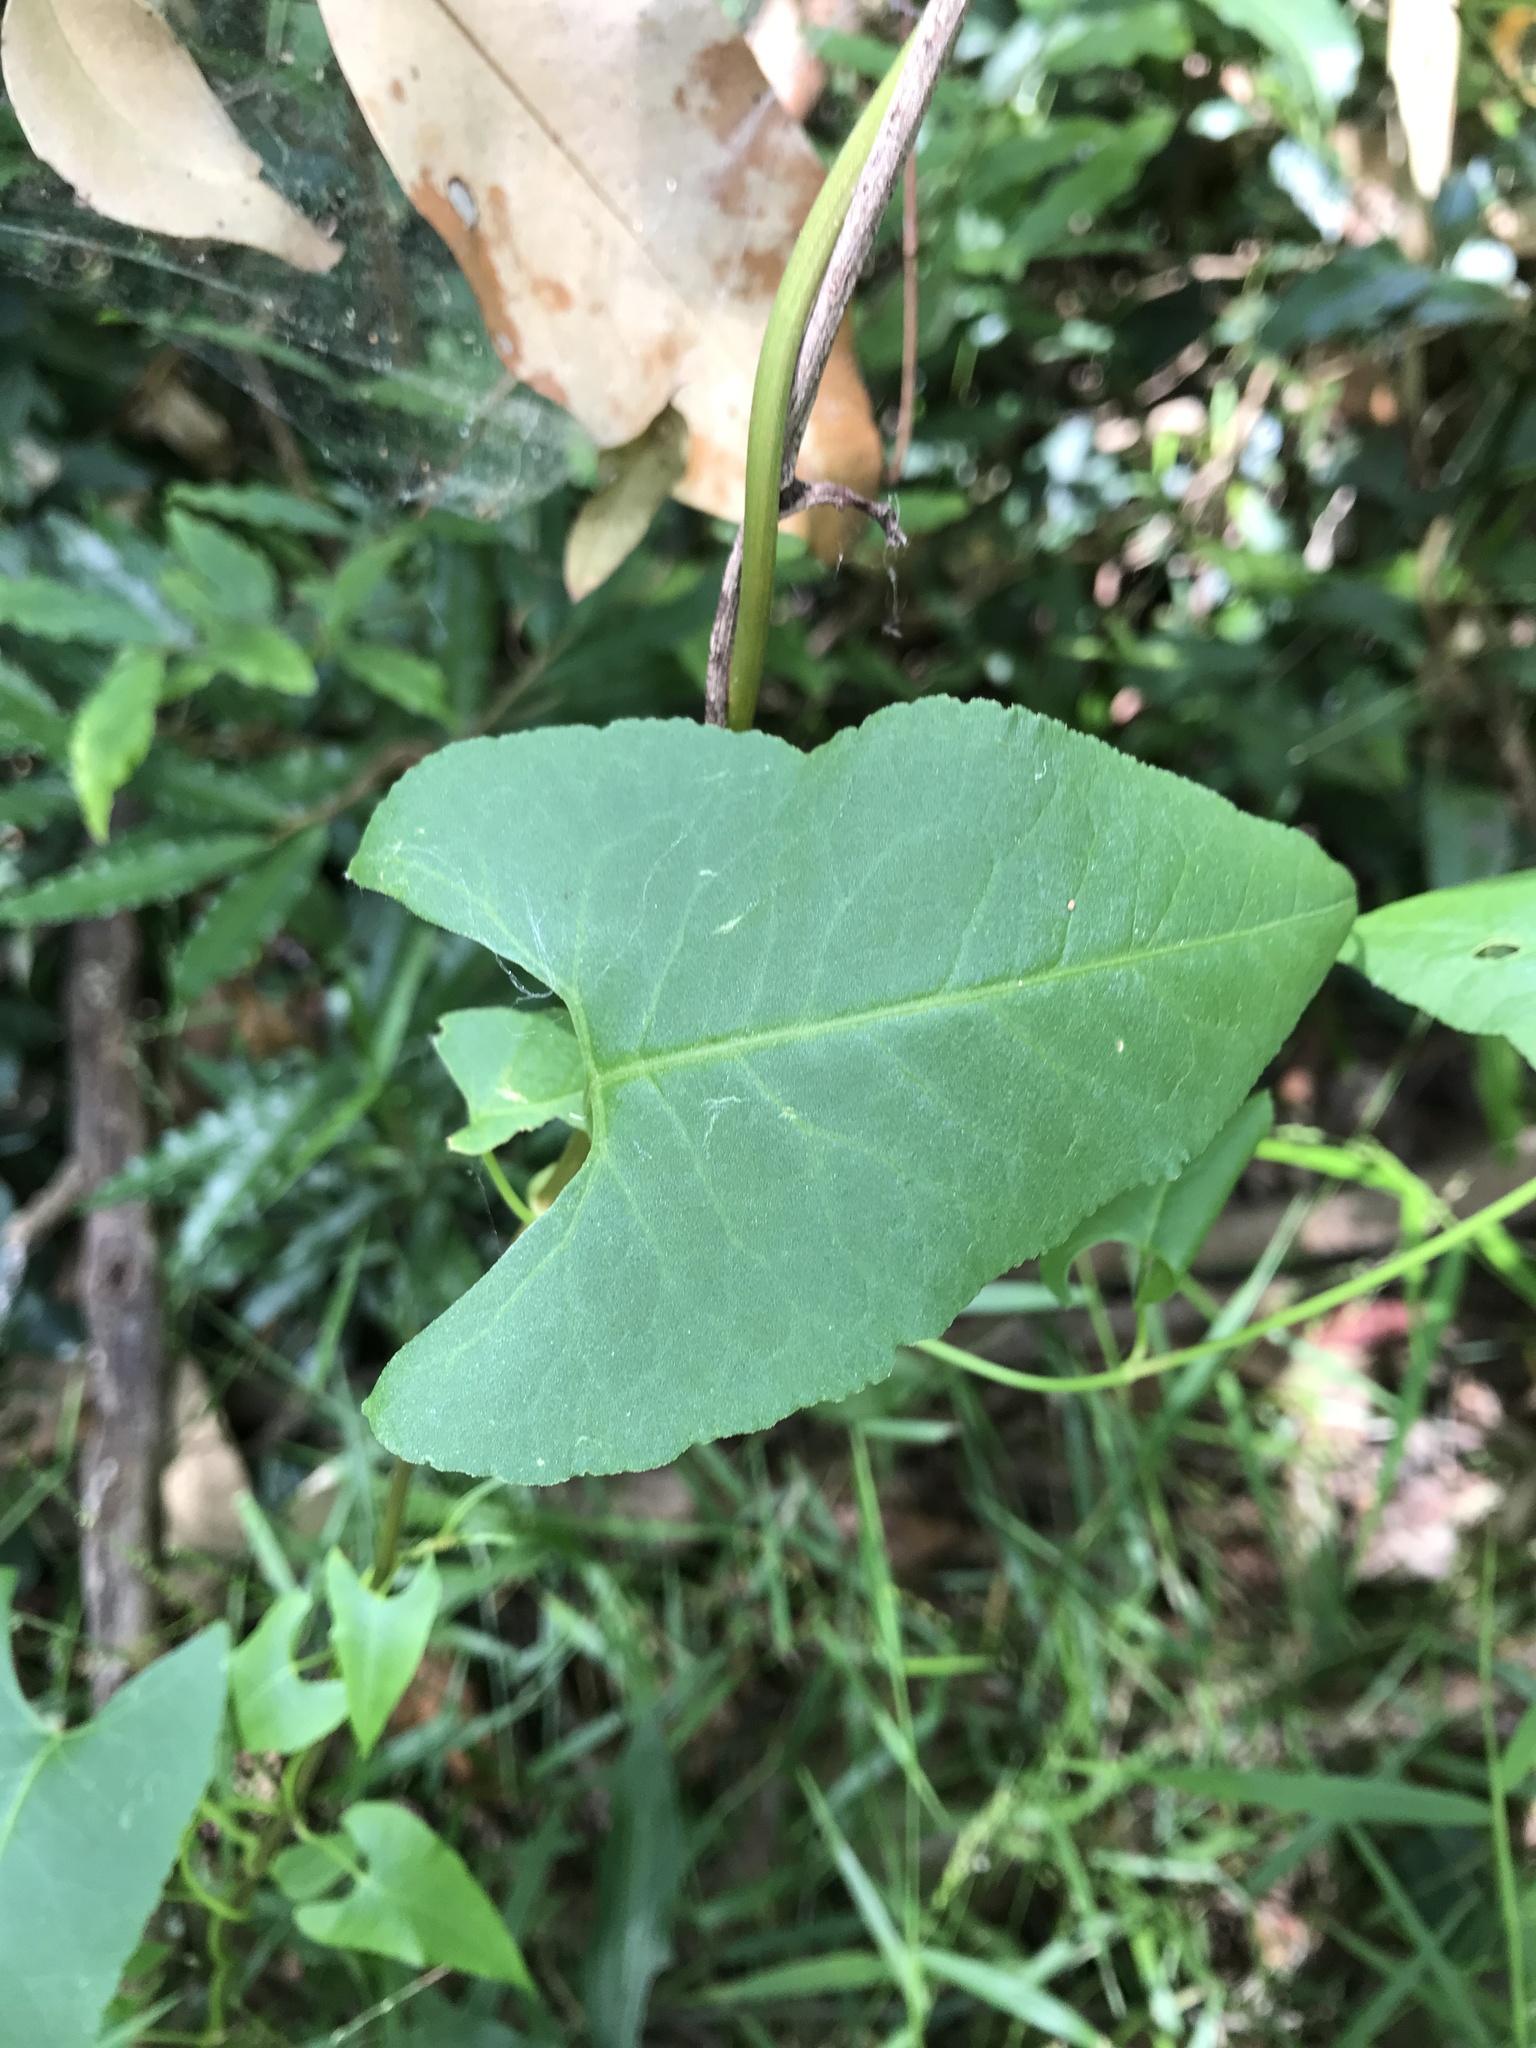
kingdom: Plantae
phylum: Tracheophyta
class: Magnoliopsida
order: Caryophyllales
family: Polygonaceae
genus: Muehlenbeckia
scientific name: Muehlenbeckia gracillima
